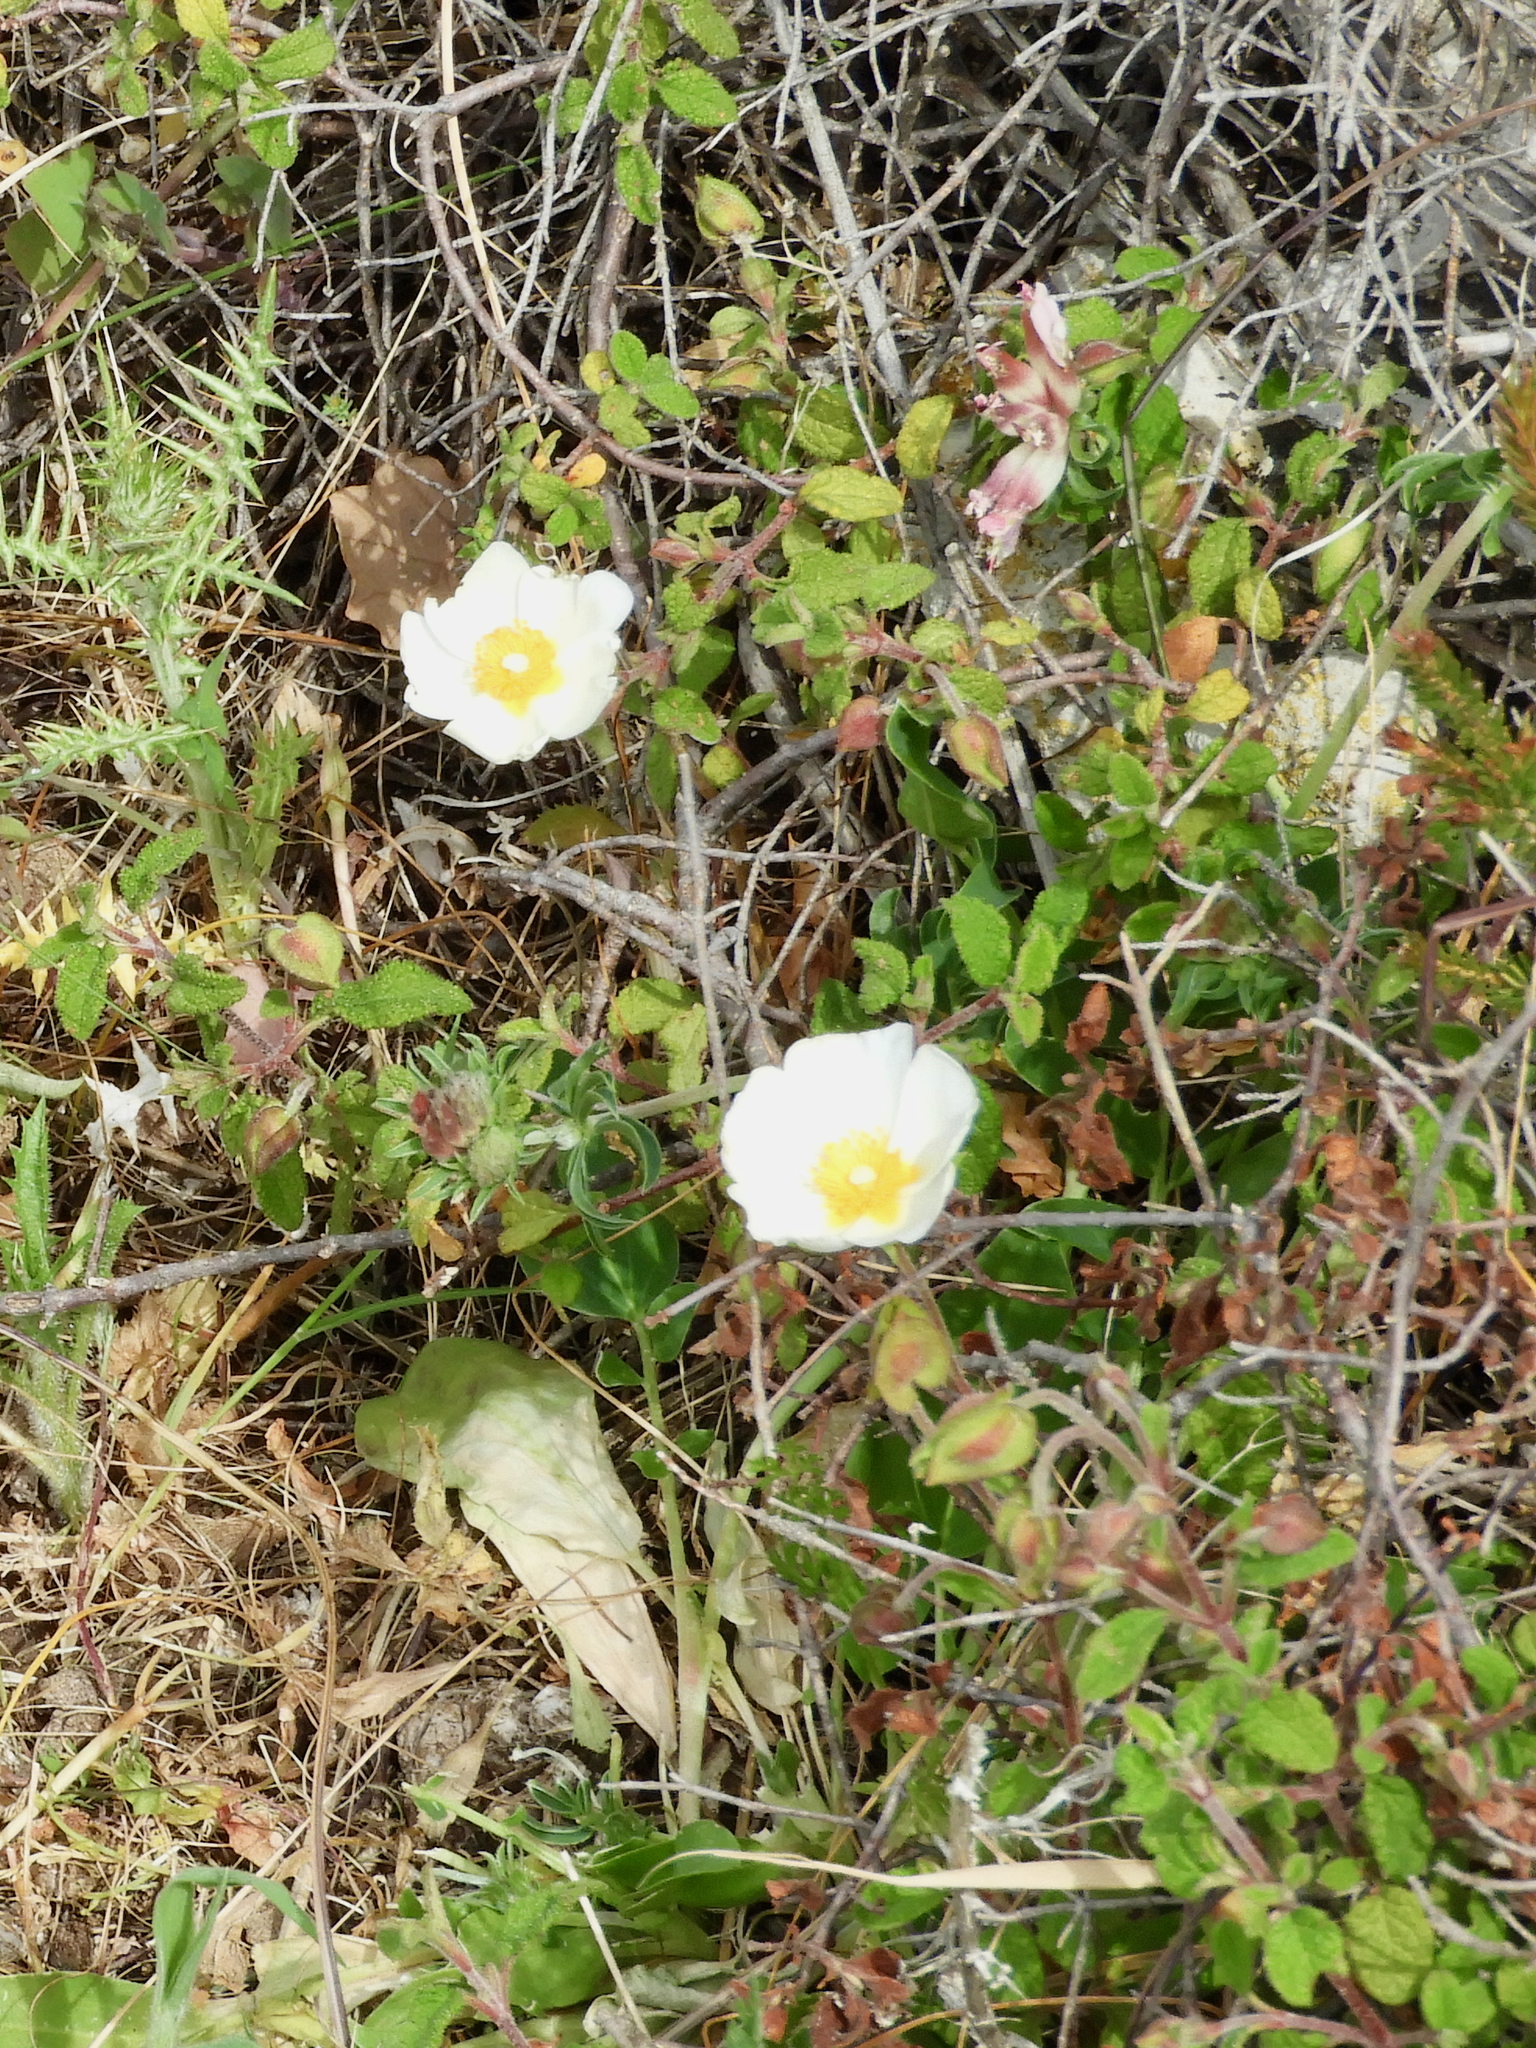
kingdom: Plantae
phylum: Tracheophyta
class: Magnoliopsida
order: Malvales
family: Cistaceae
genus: Cistus
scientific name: Cistus salviifolius
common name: Salvia cistus
